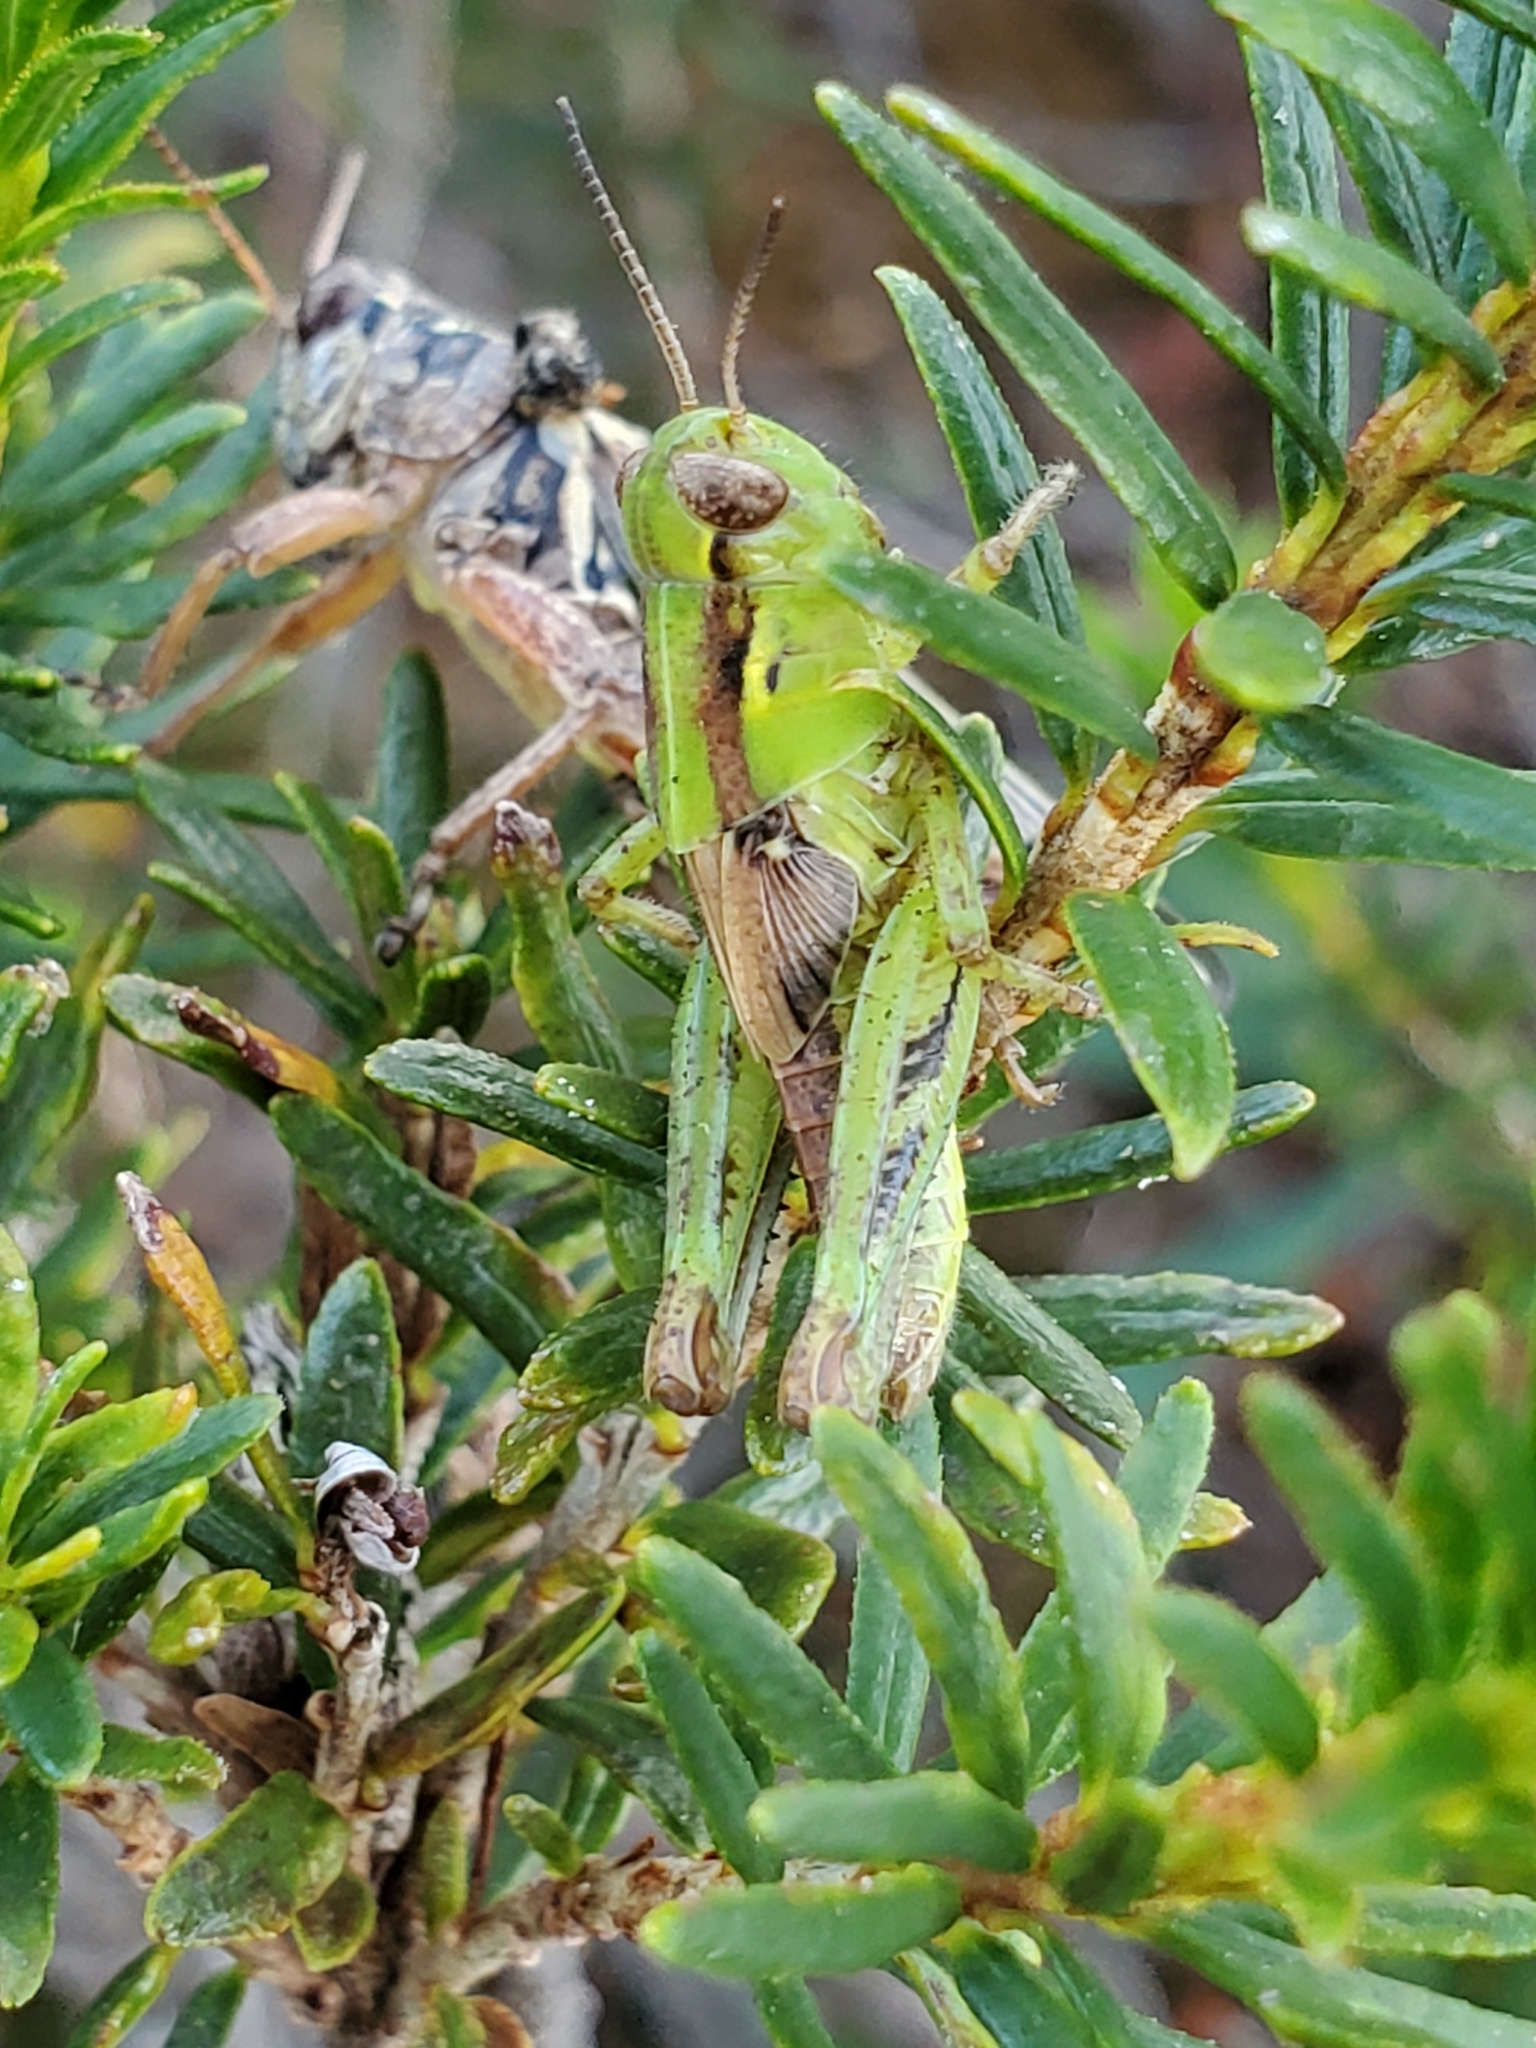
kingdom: Animalia
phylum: Arthropoda
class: Insecta
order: Orthoptera
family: Acrididae
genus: Melanoplus
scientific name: Melanoplus sanguinipes
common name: Migratory grasshopper
